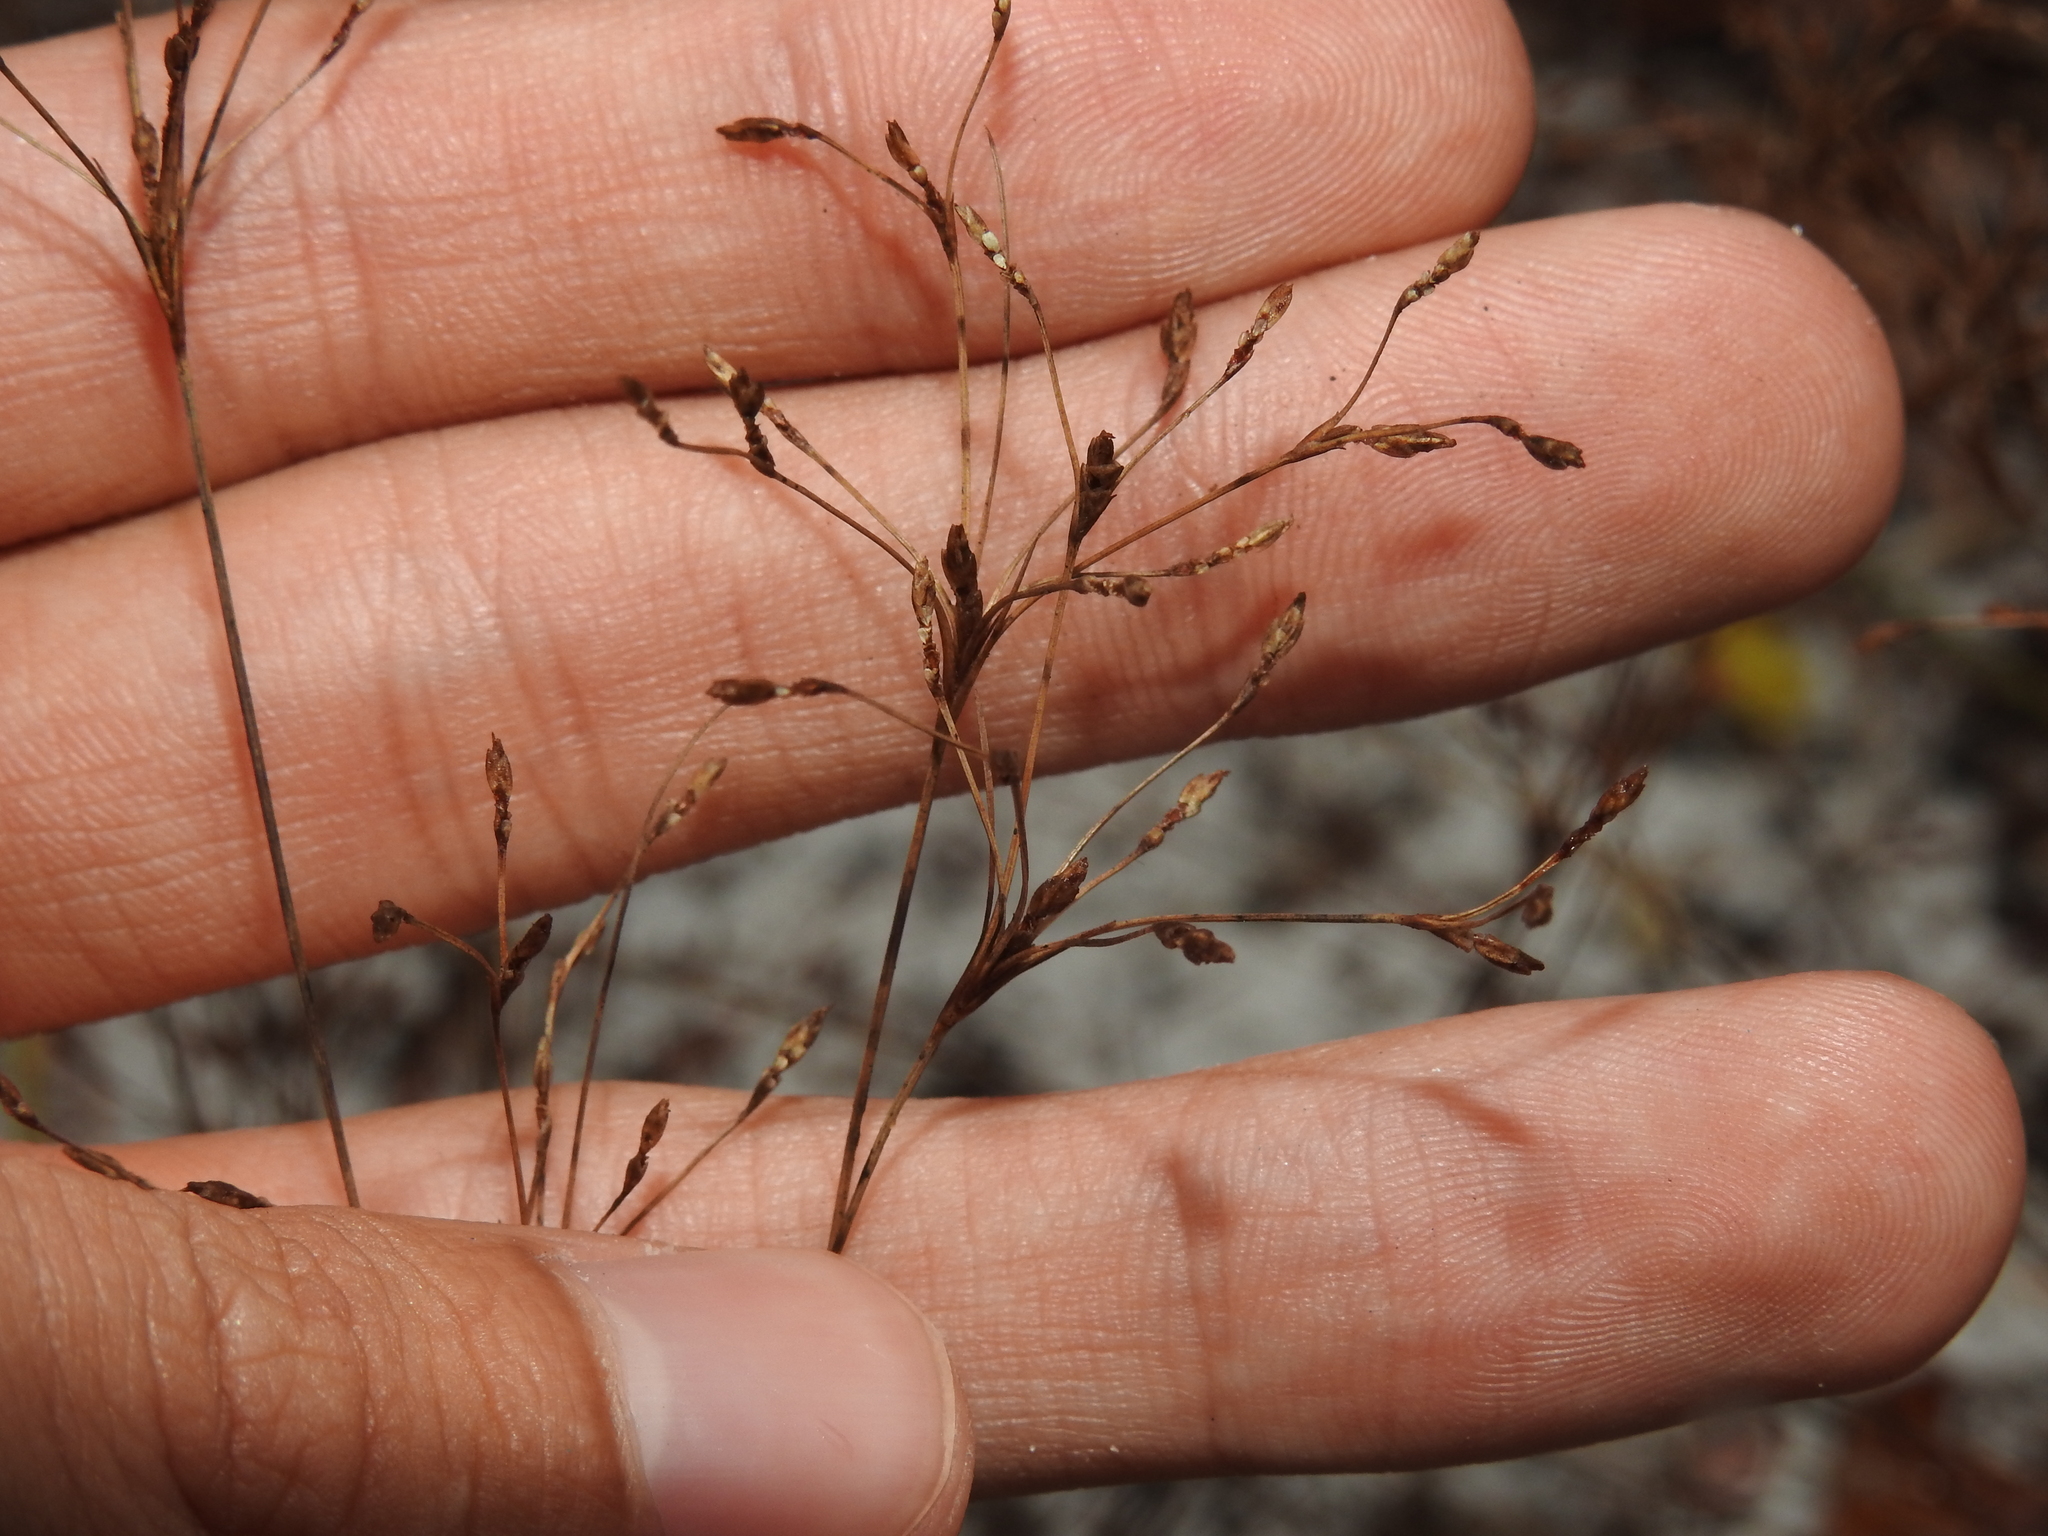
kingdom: Plantae
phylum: Tracheophyta
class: Liliopsida
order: Poales
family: Cyperaceae
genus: Bulbostylis
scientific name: Bulbostylis ciliatifolia
